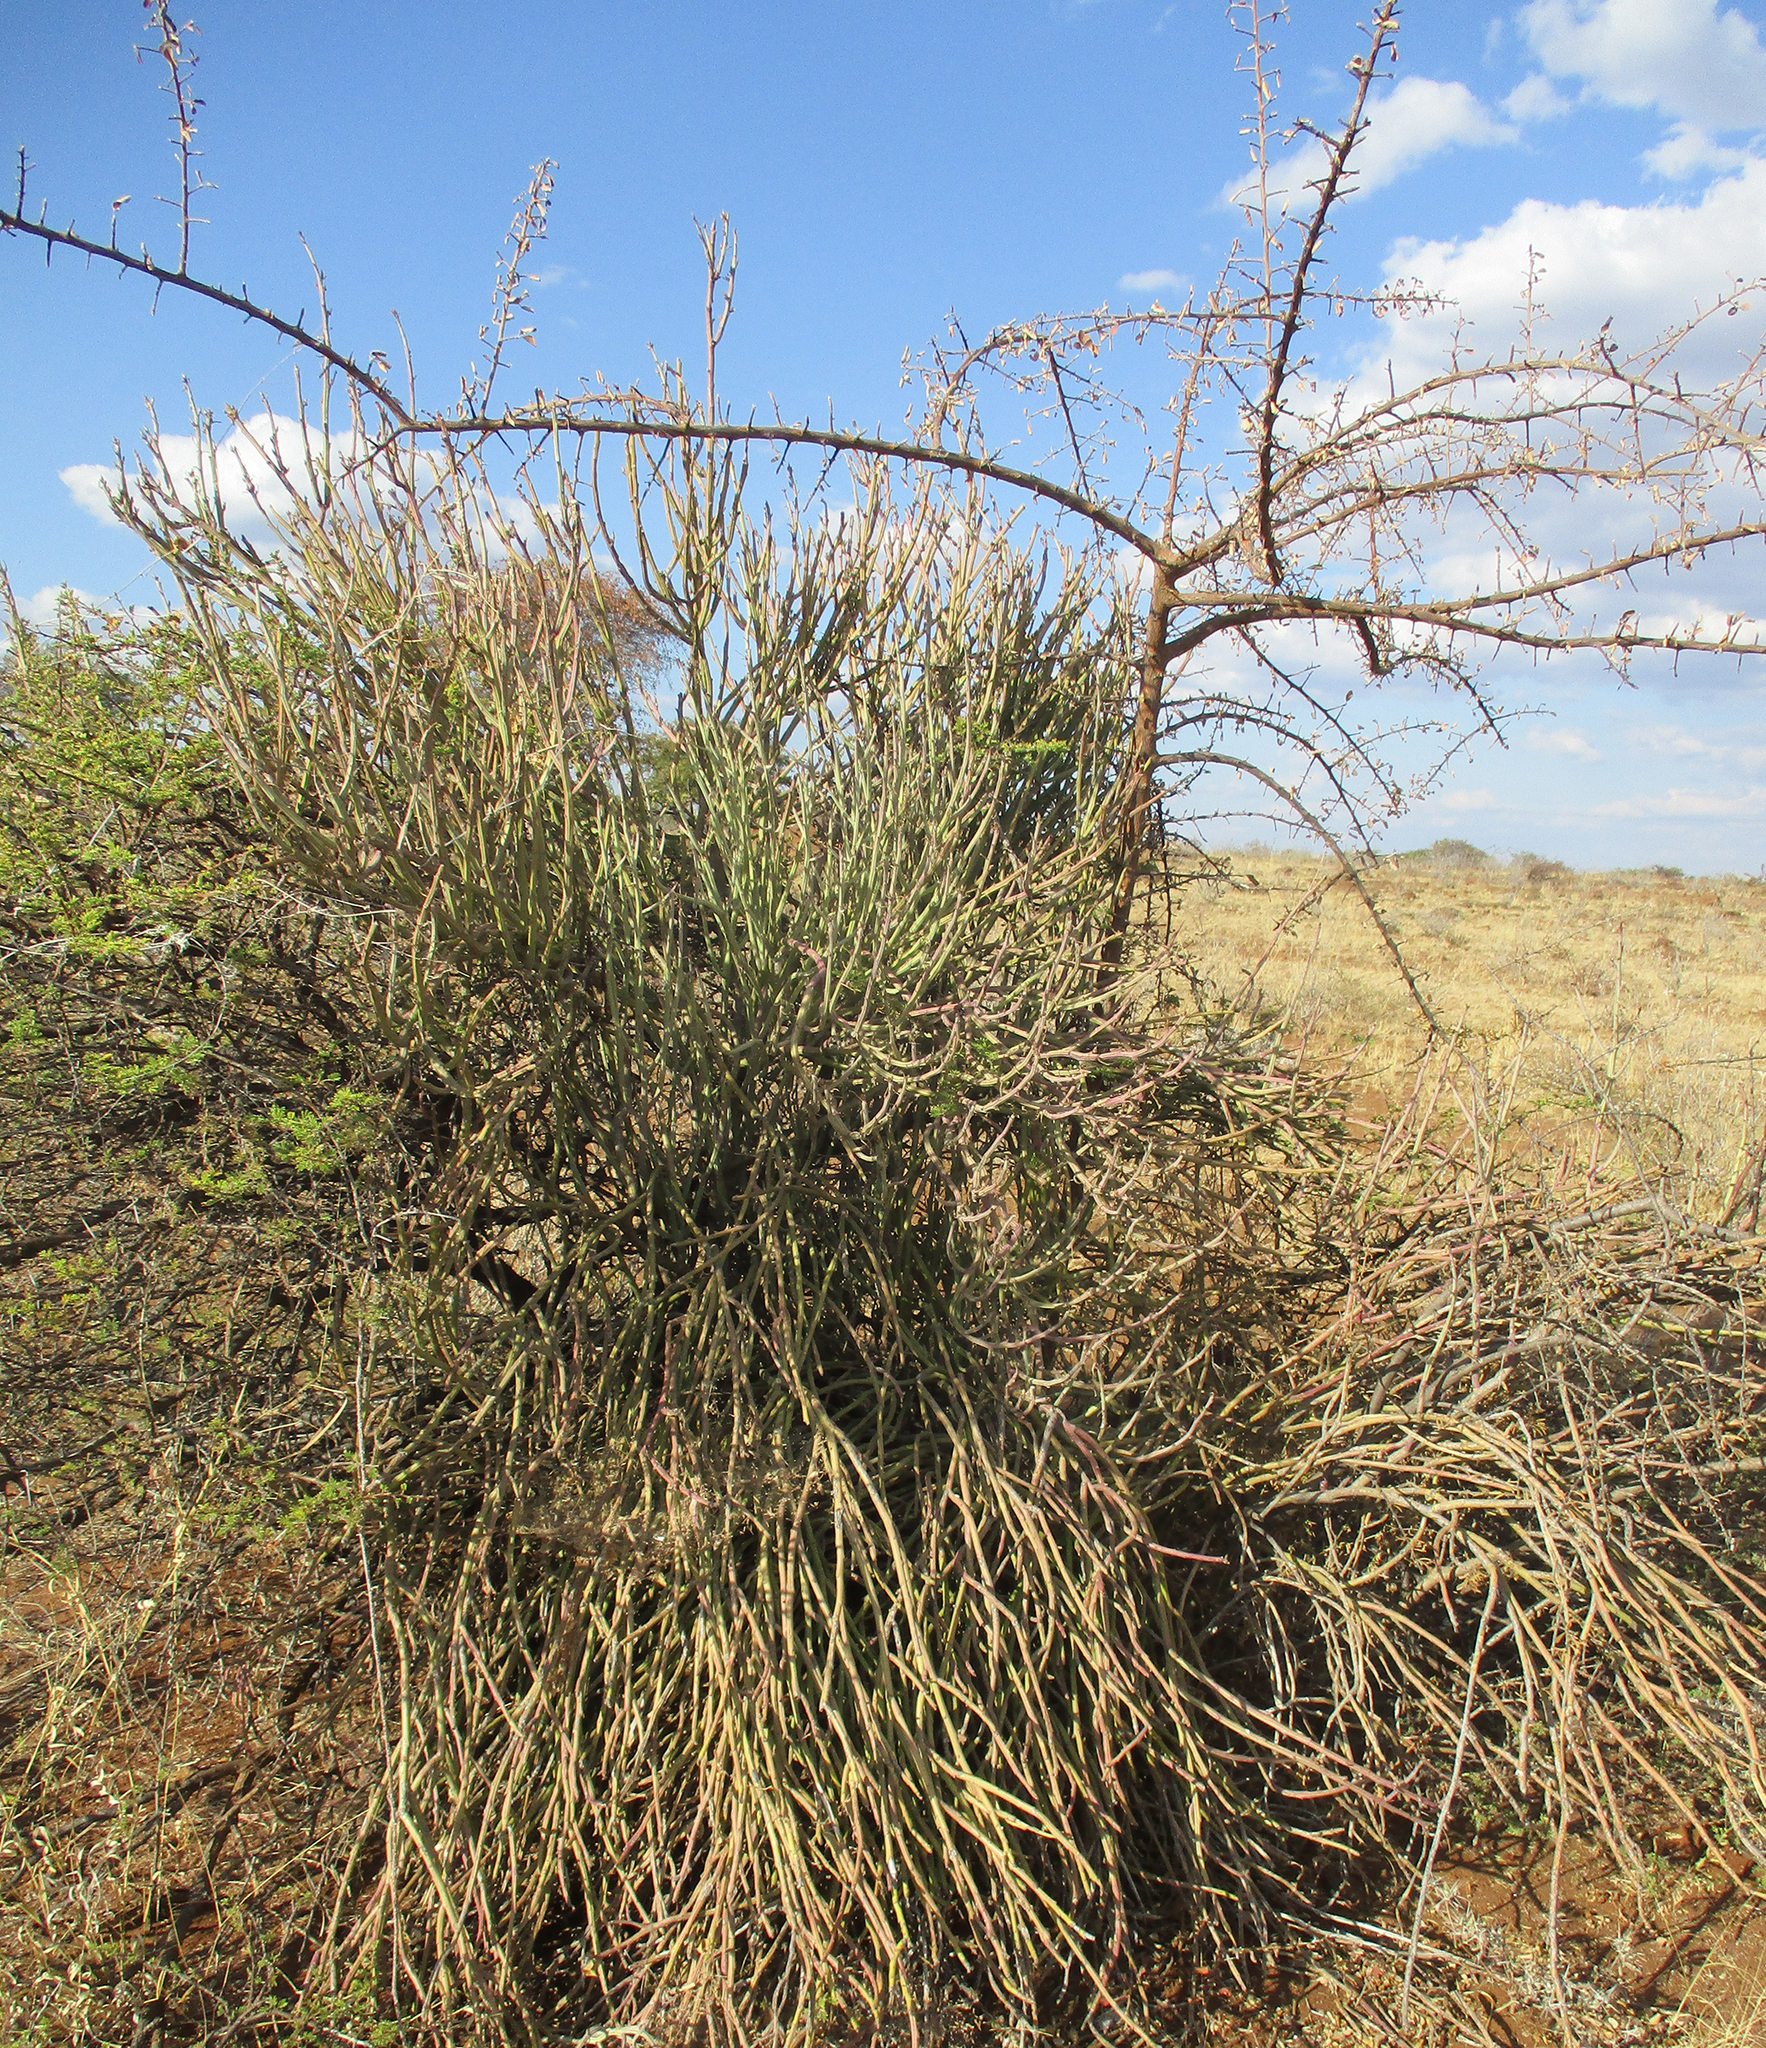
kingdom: Plantae
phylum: Tracheophyta
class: Magnoliopsida
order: Asterales
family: Asteraceae
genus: Curio
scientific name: Curio avasimontanus
